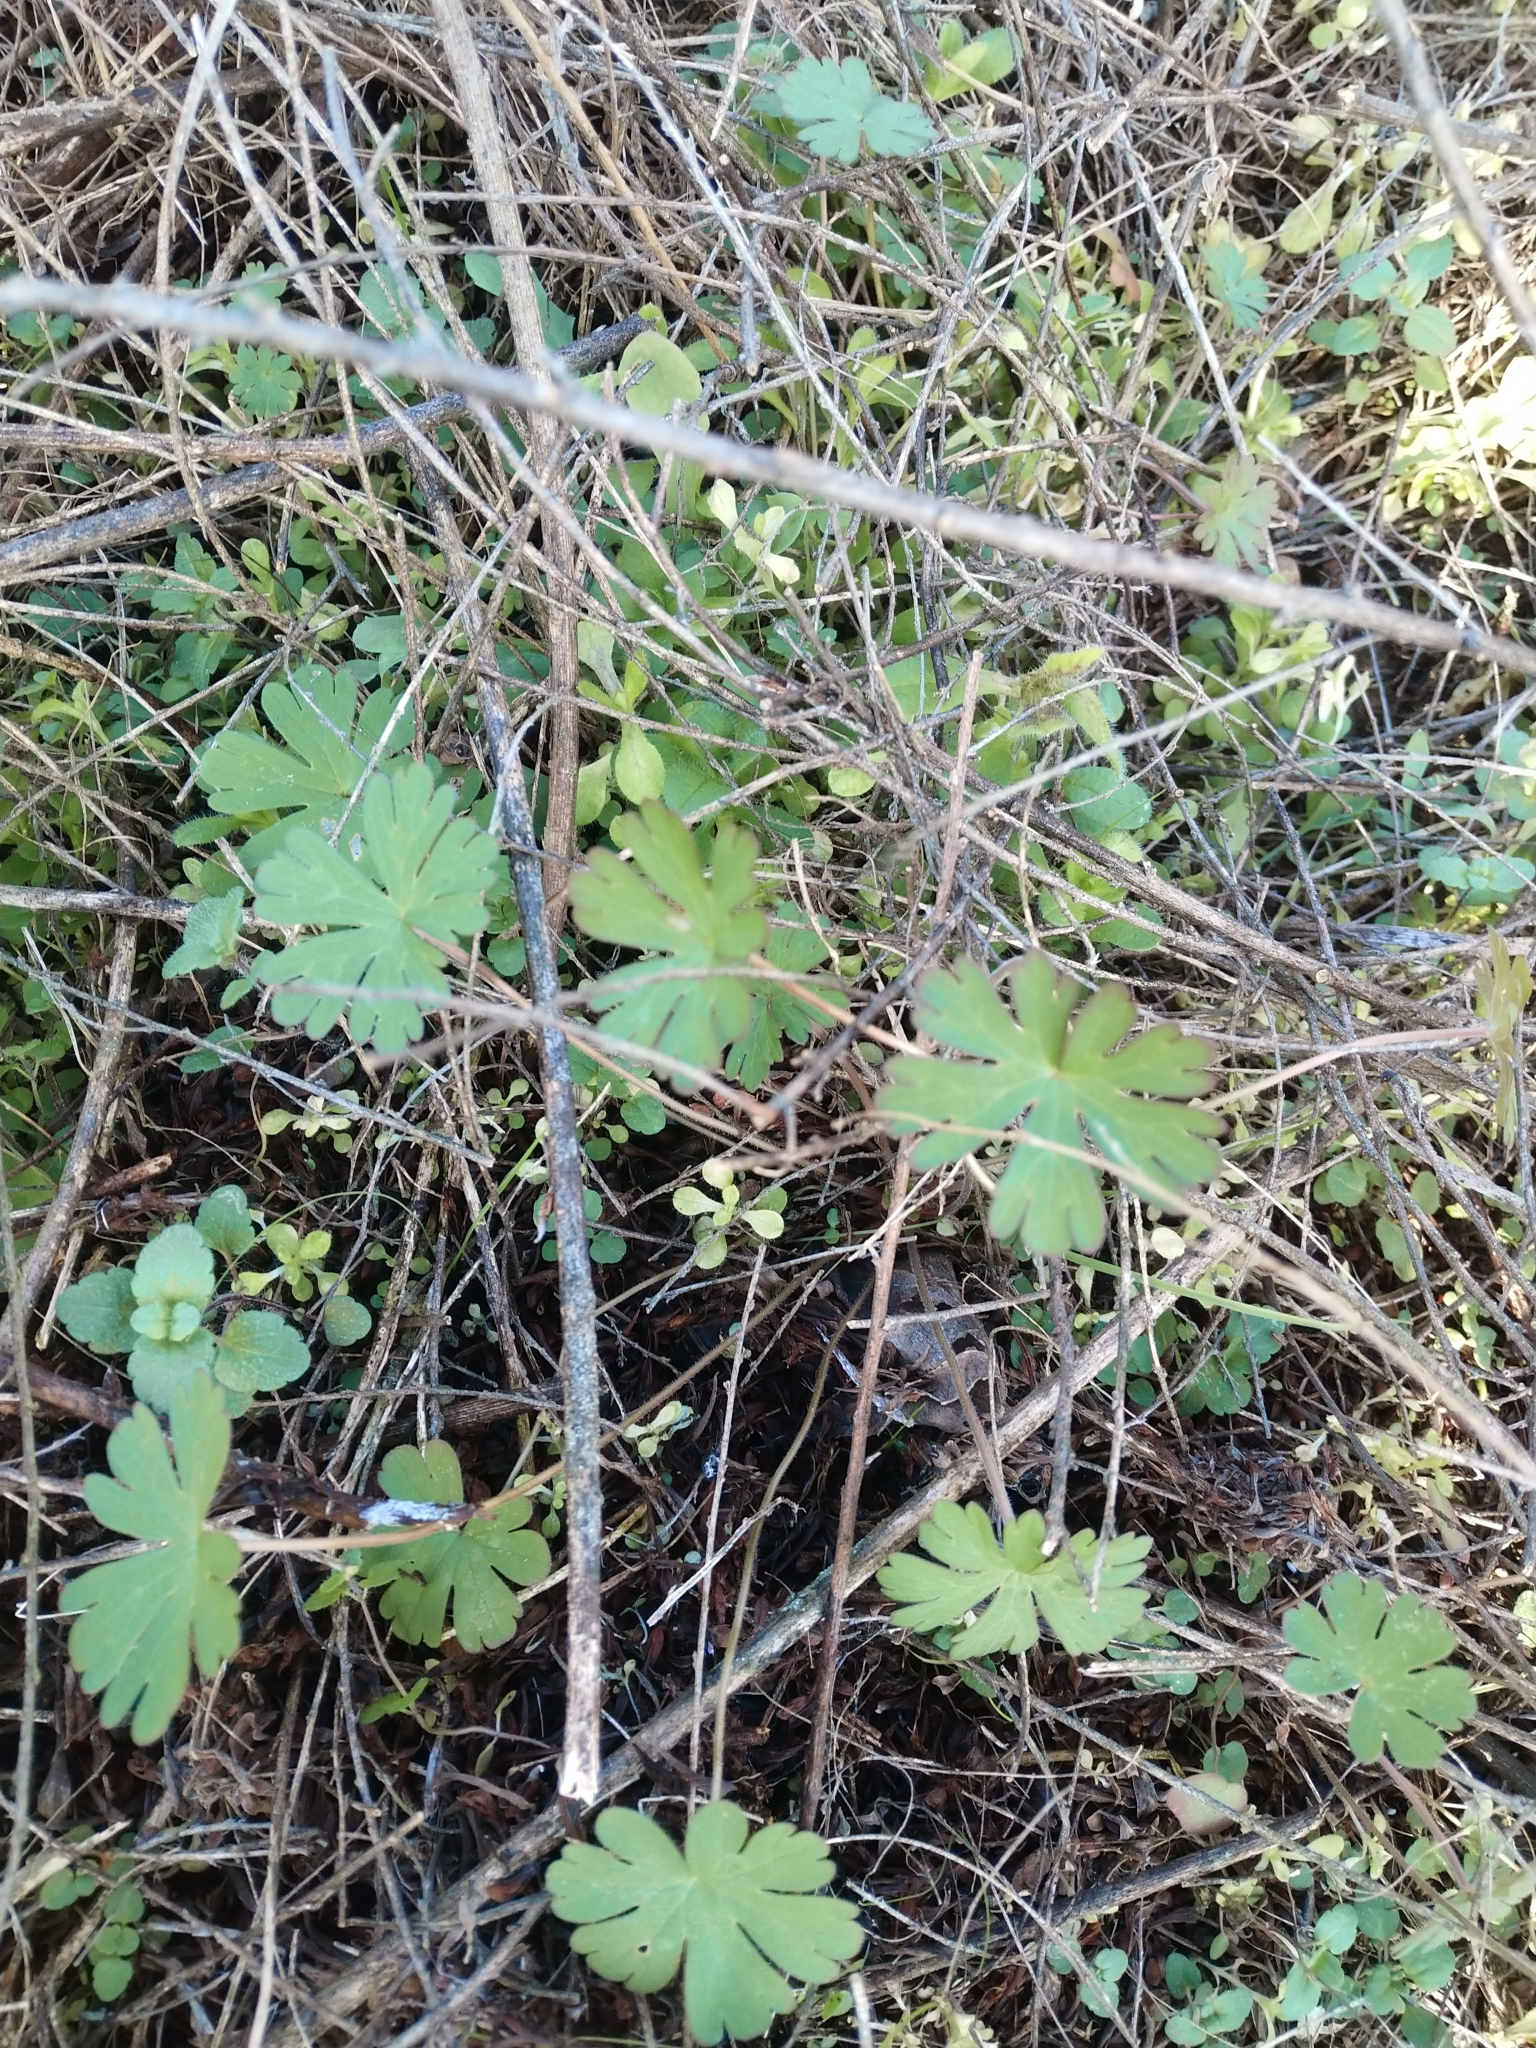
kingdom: Plantae
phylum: Tracheophyta
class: Magnoliopsida
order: Geraniales
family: Geraniaceae
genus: Geranium
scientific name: Geranium carolinianum
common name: Carolina crane's-bill
